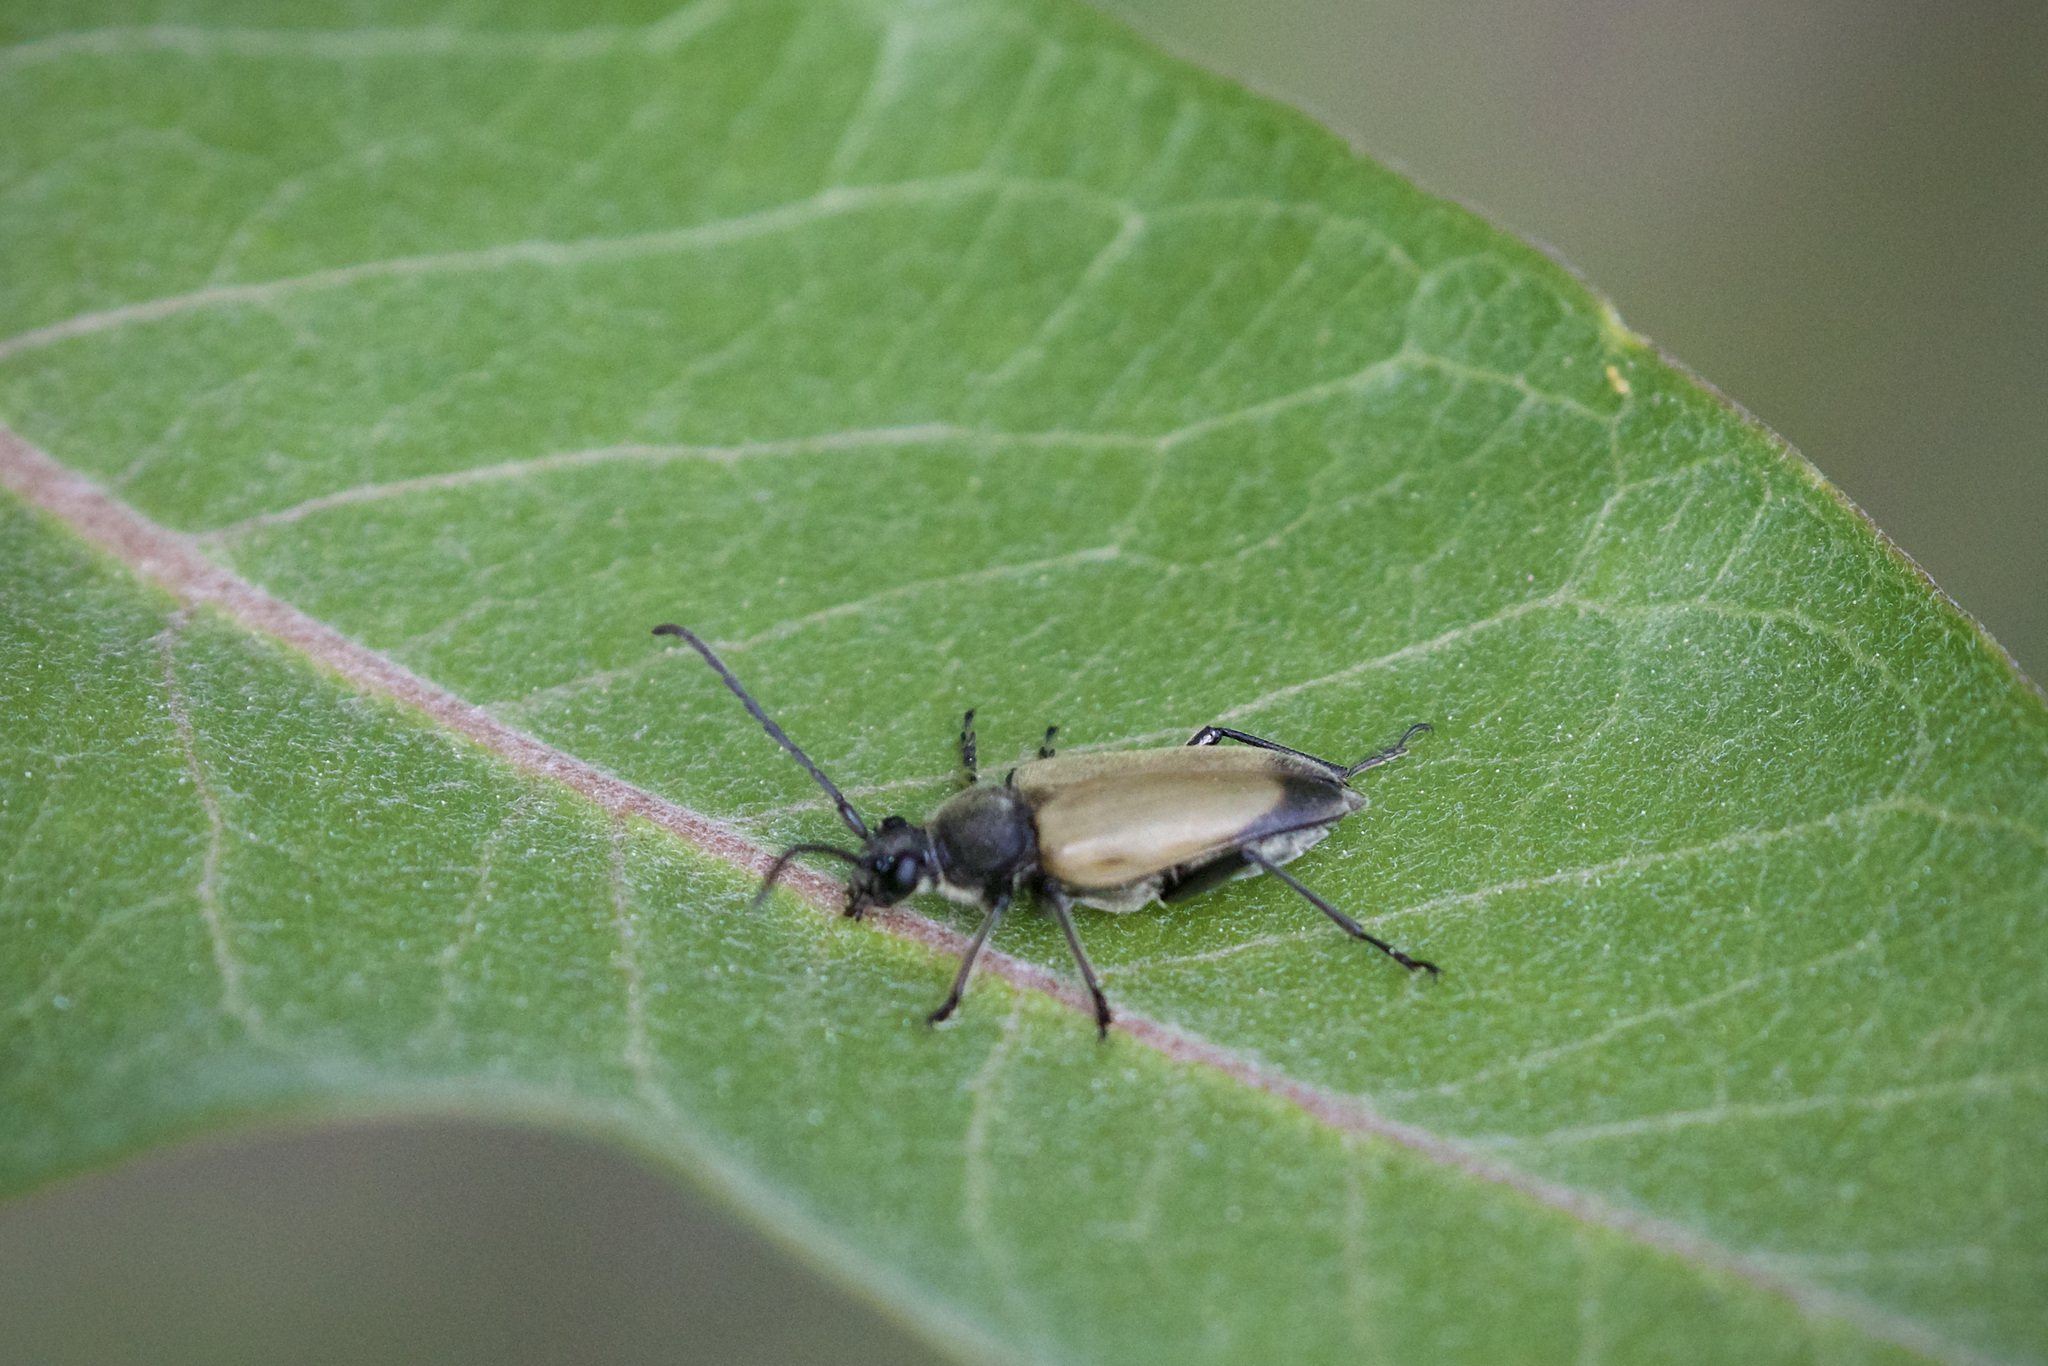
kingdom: Animalia
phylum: Arthropoda
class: Insecta
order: Coleoptera
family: Cerambycidae
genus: Cosmosalia
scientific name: Cosmosalia chrysocoma
